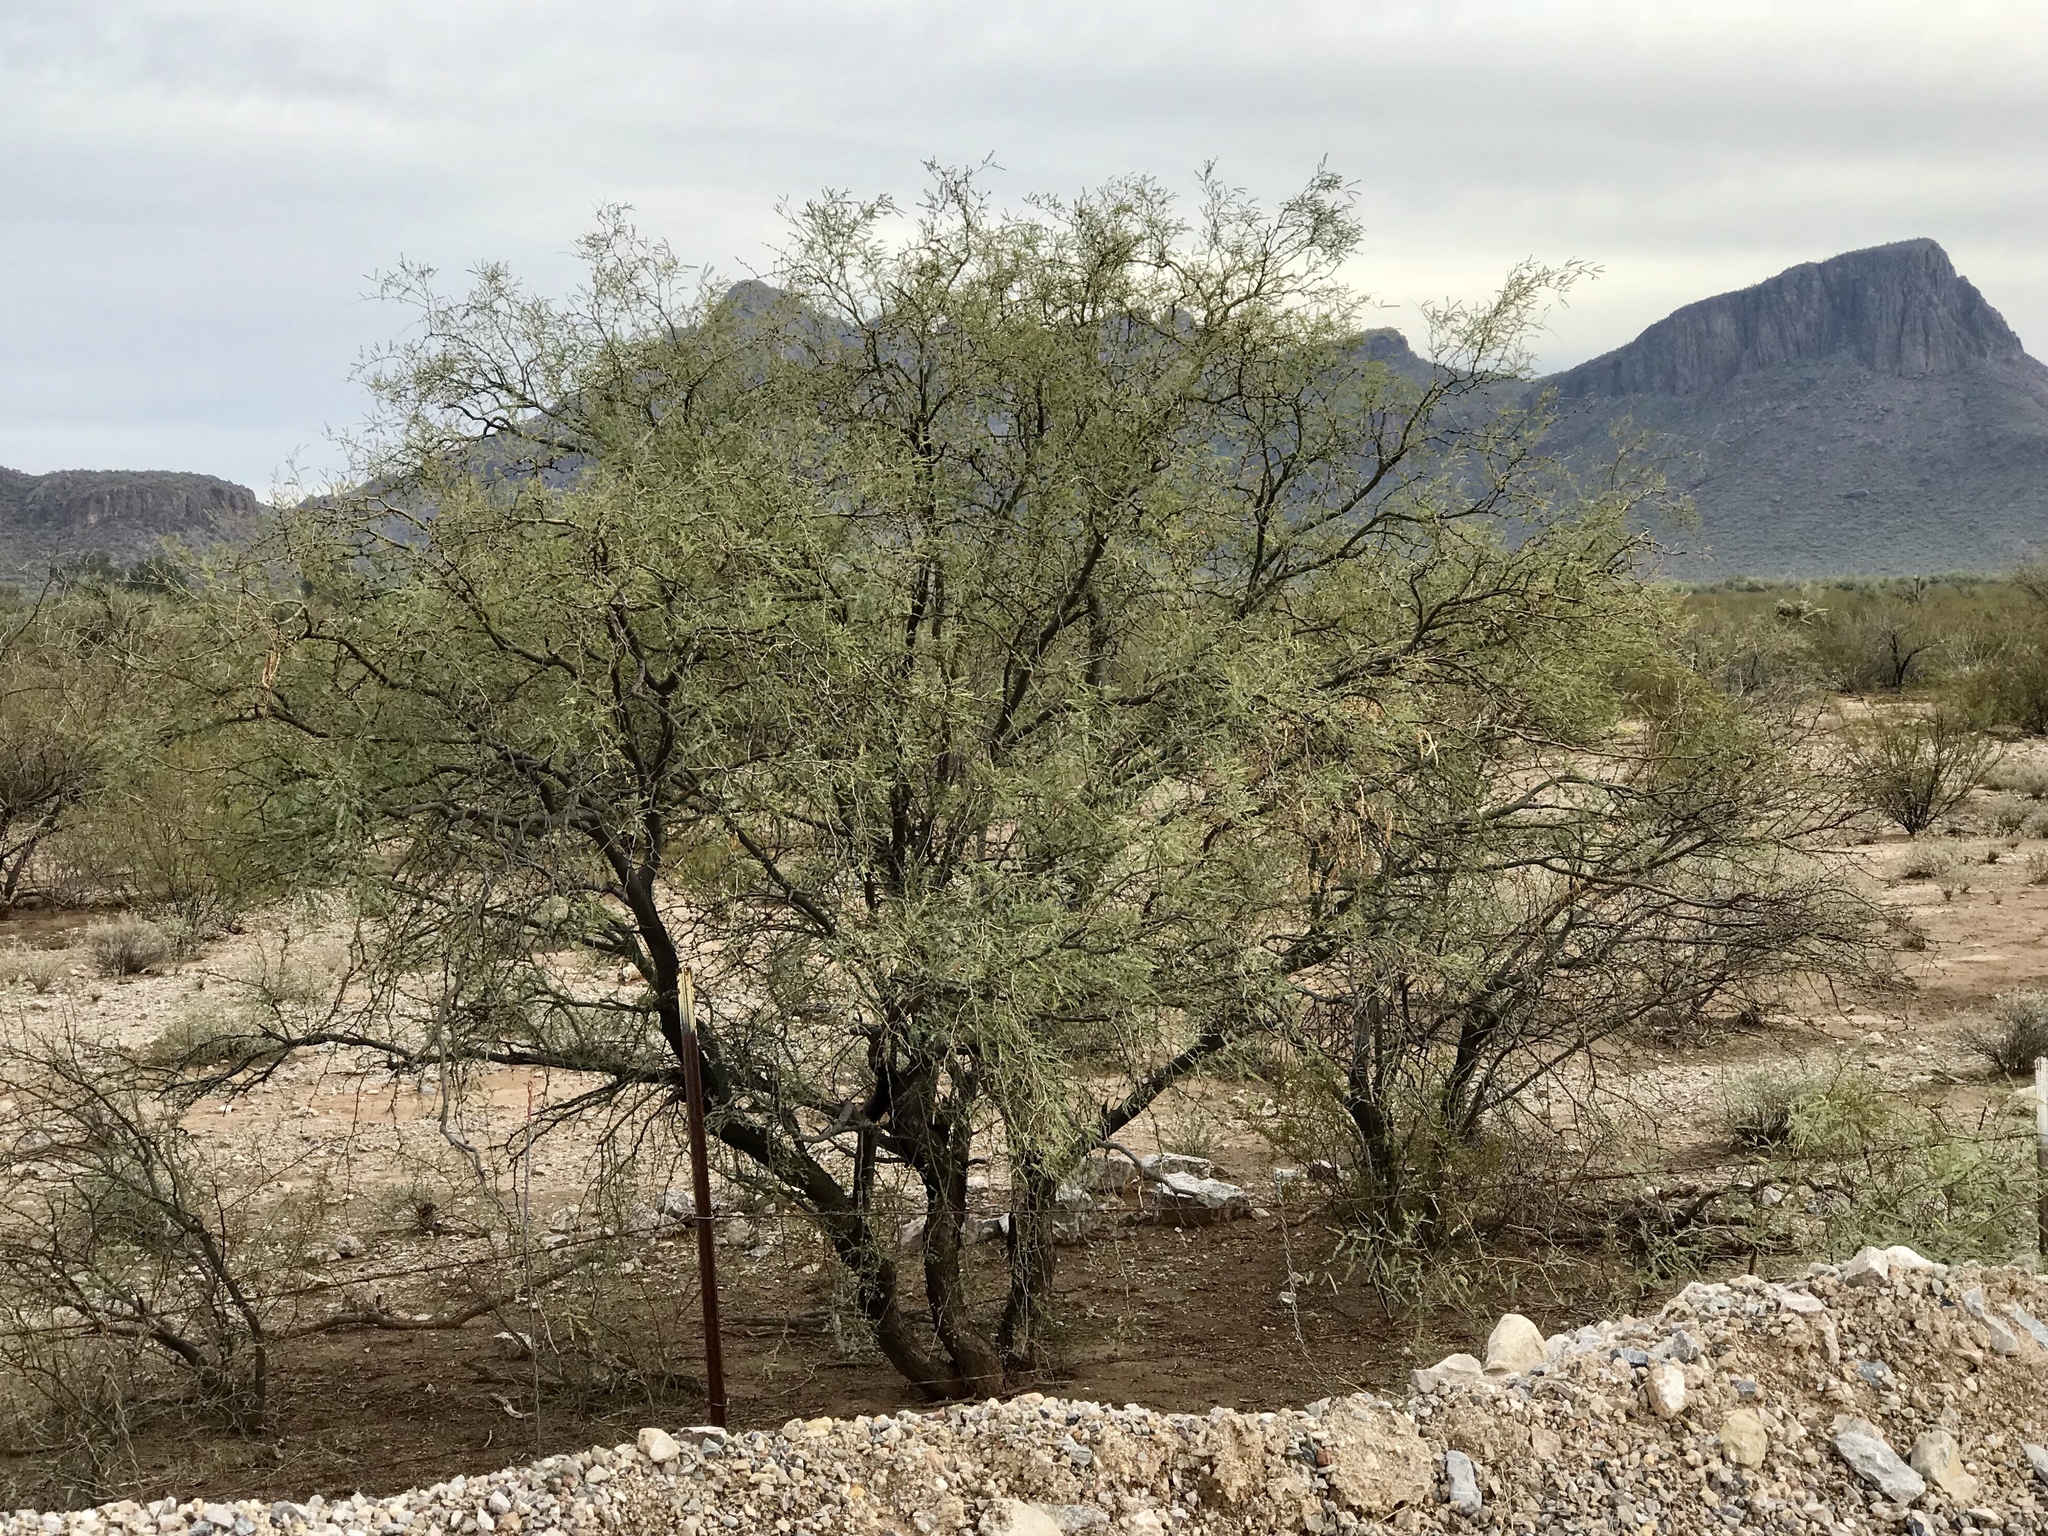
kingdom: Plantae
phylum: Tracheophyta
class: Magnoliopsida
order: Fabales
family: Fabaceae
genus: Prosopis
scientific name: Prosopis velutina
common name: Velvet mesquite
